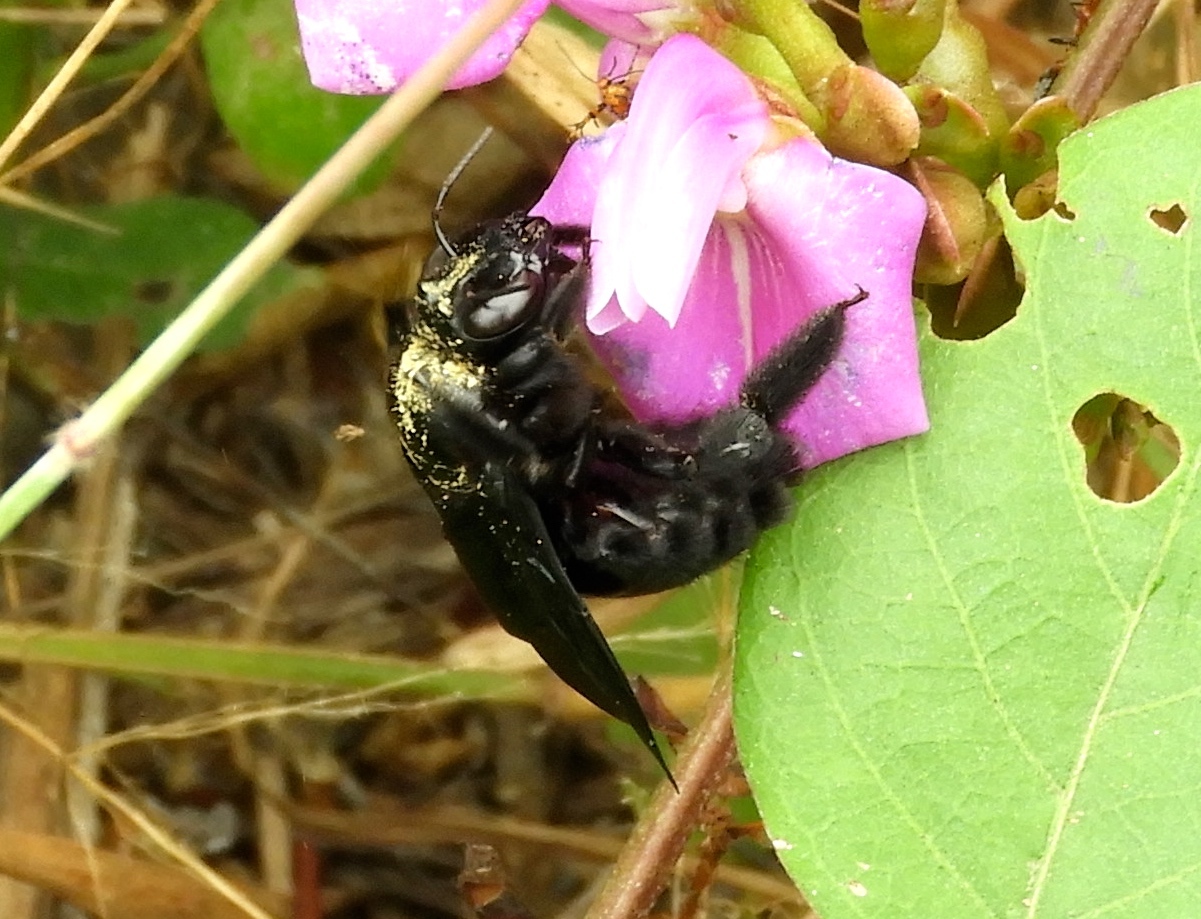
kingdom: Animalia
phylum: Arthropoda
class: Insecta
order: Hymenoptera
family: Apidae
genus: Xylocopa
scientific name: Xylocopa
